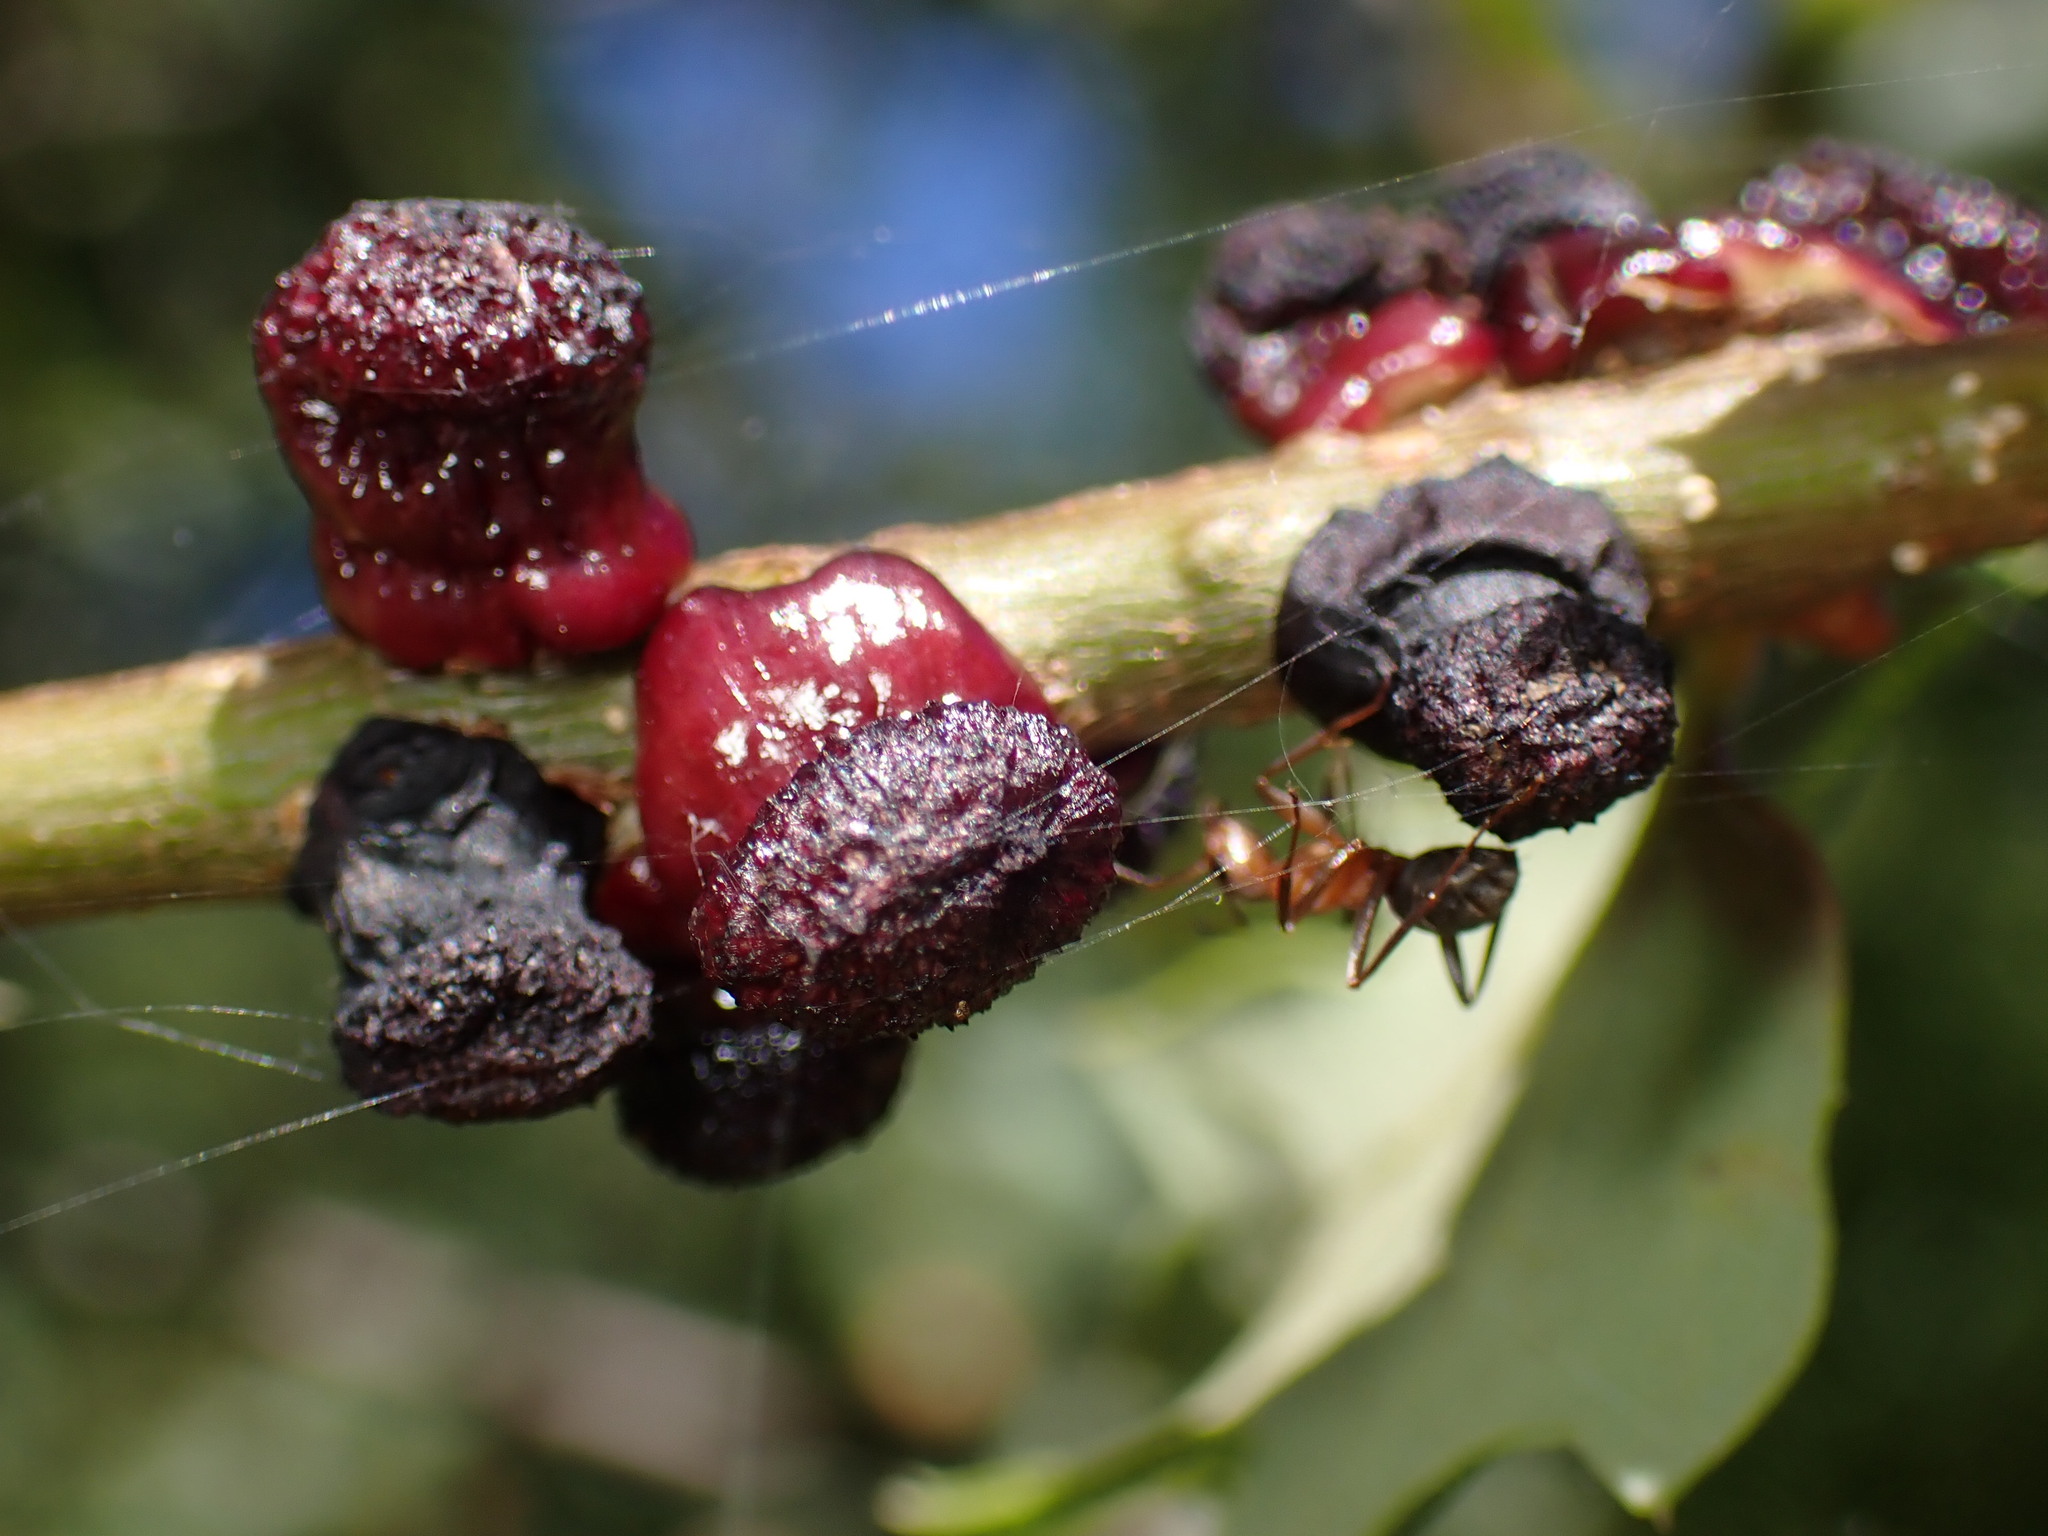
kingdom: Animalia
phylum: Arthropoda
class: Insecta
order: Hymenoptera
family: Cynipidae
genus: Disholcaspis
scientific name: Disholcaspis prehensa
